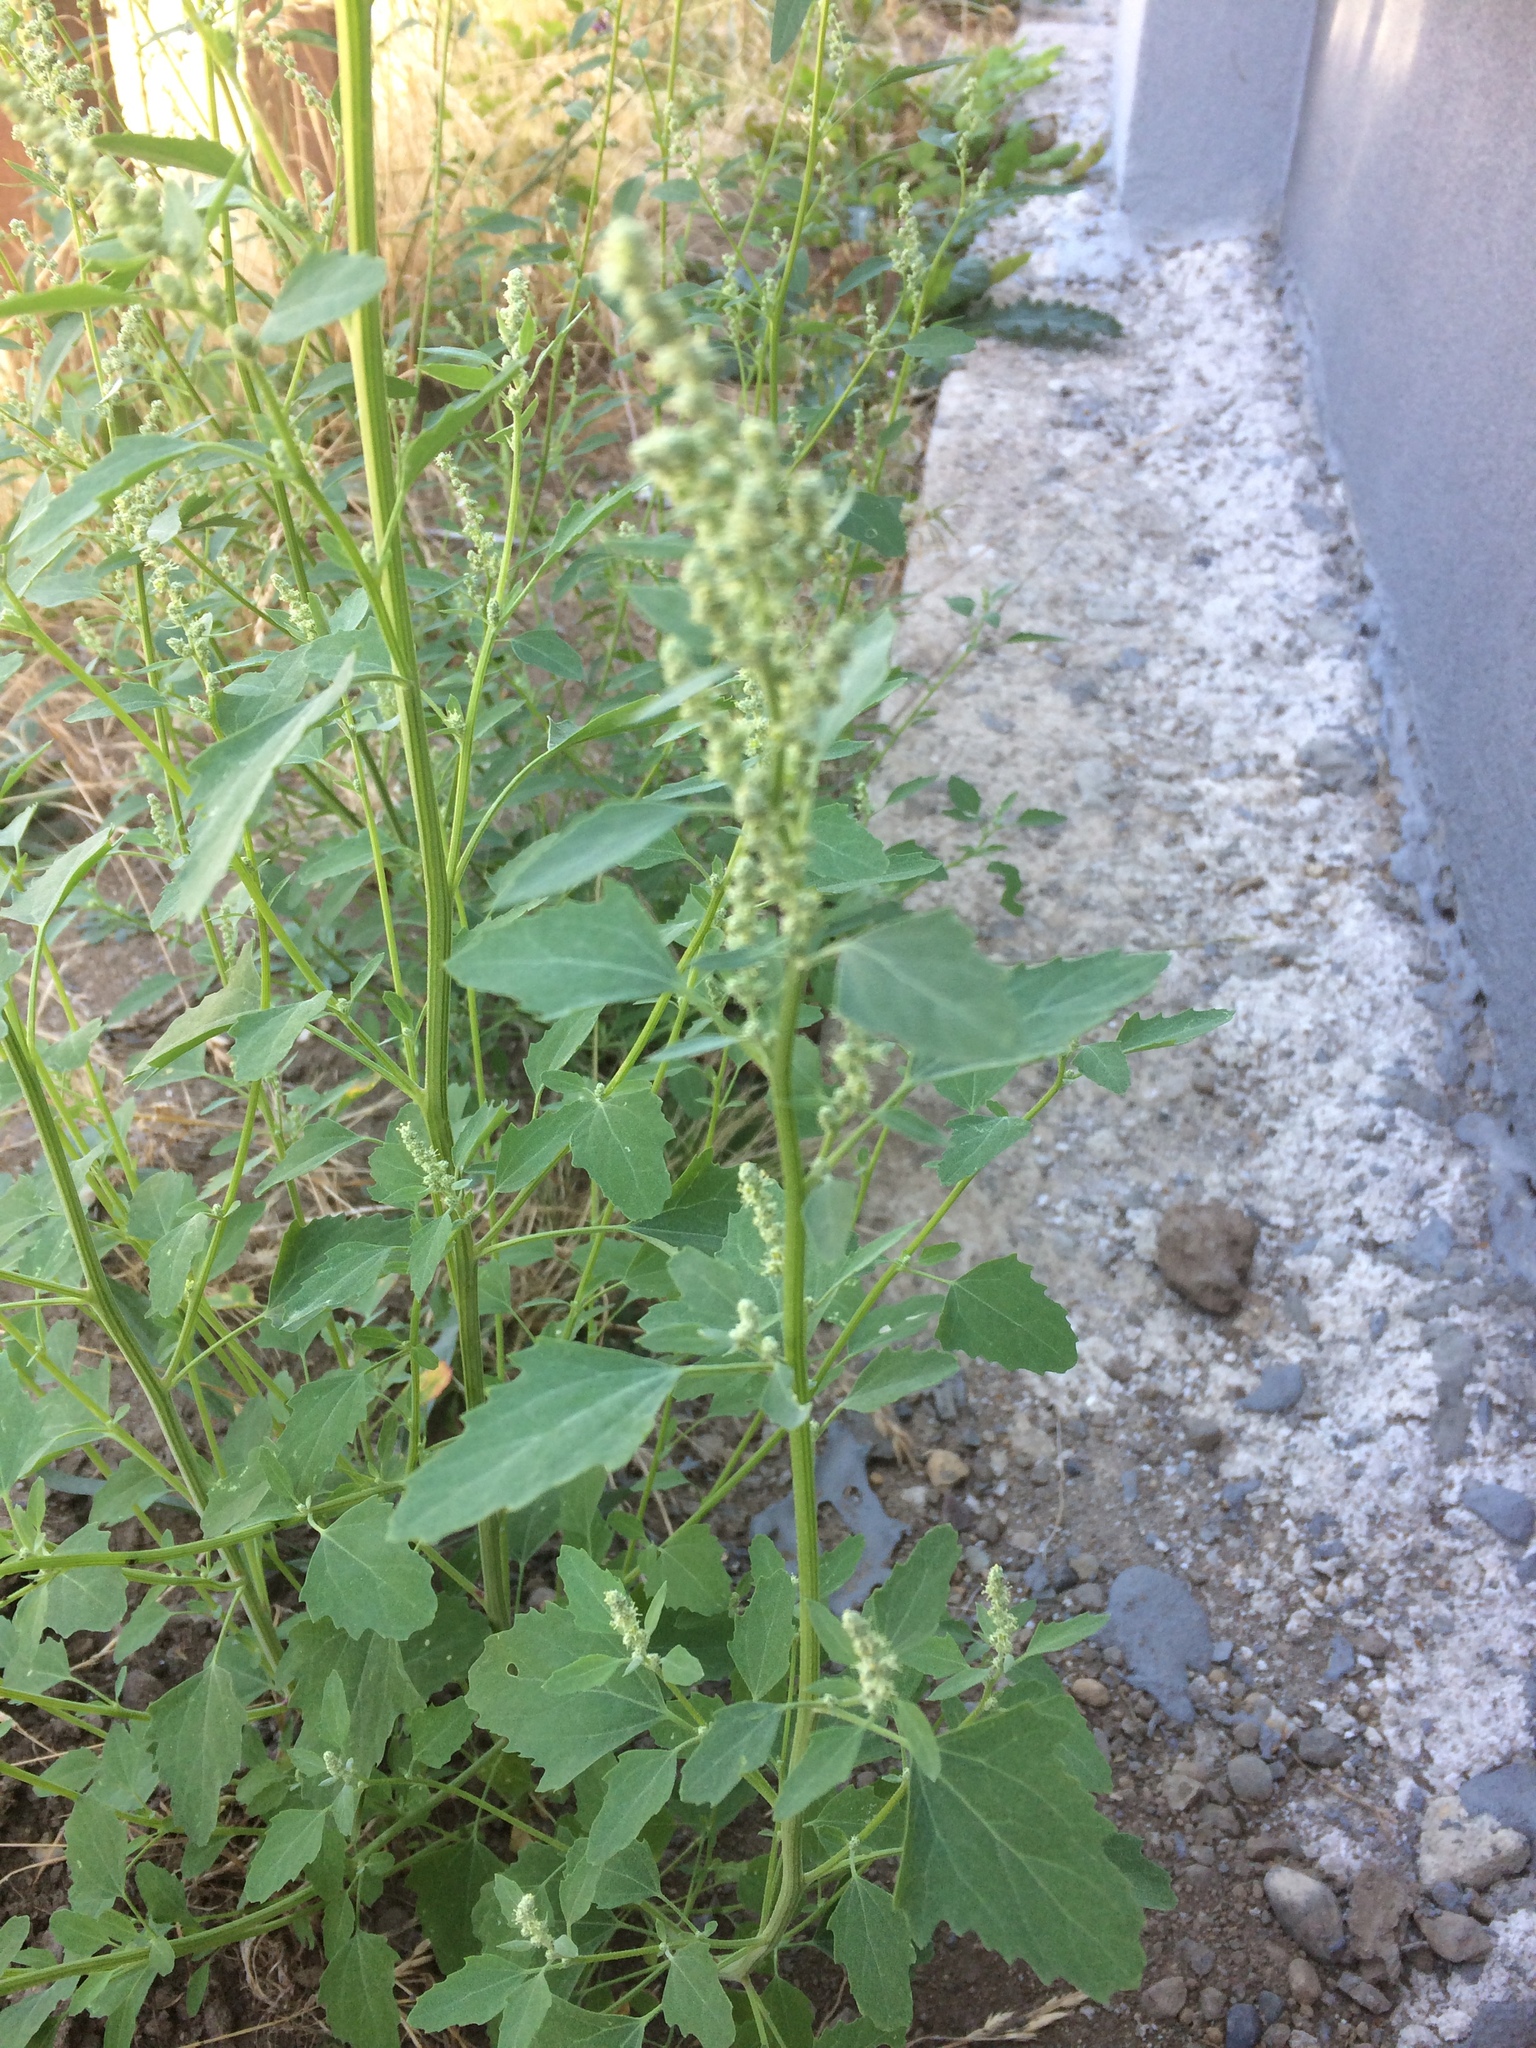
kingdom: Plantae
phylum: Tracheophyta
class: Magnoliopsida
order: Caryophyllales
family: Amaranthaceae
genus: Chenopodium
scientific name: Chenopodium album
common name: Fat-hen
